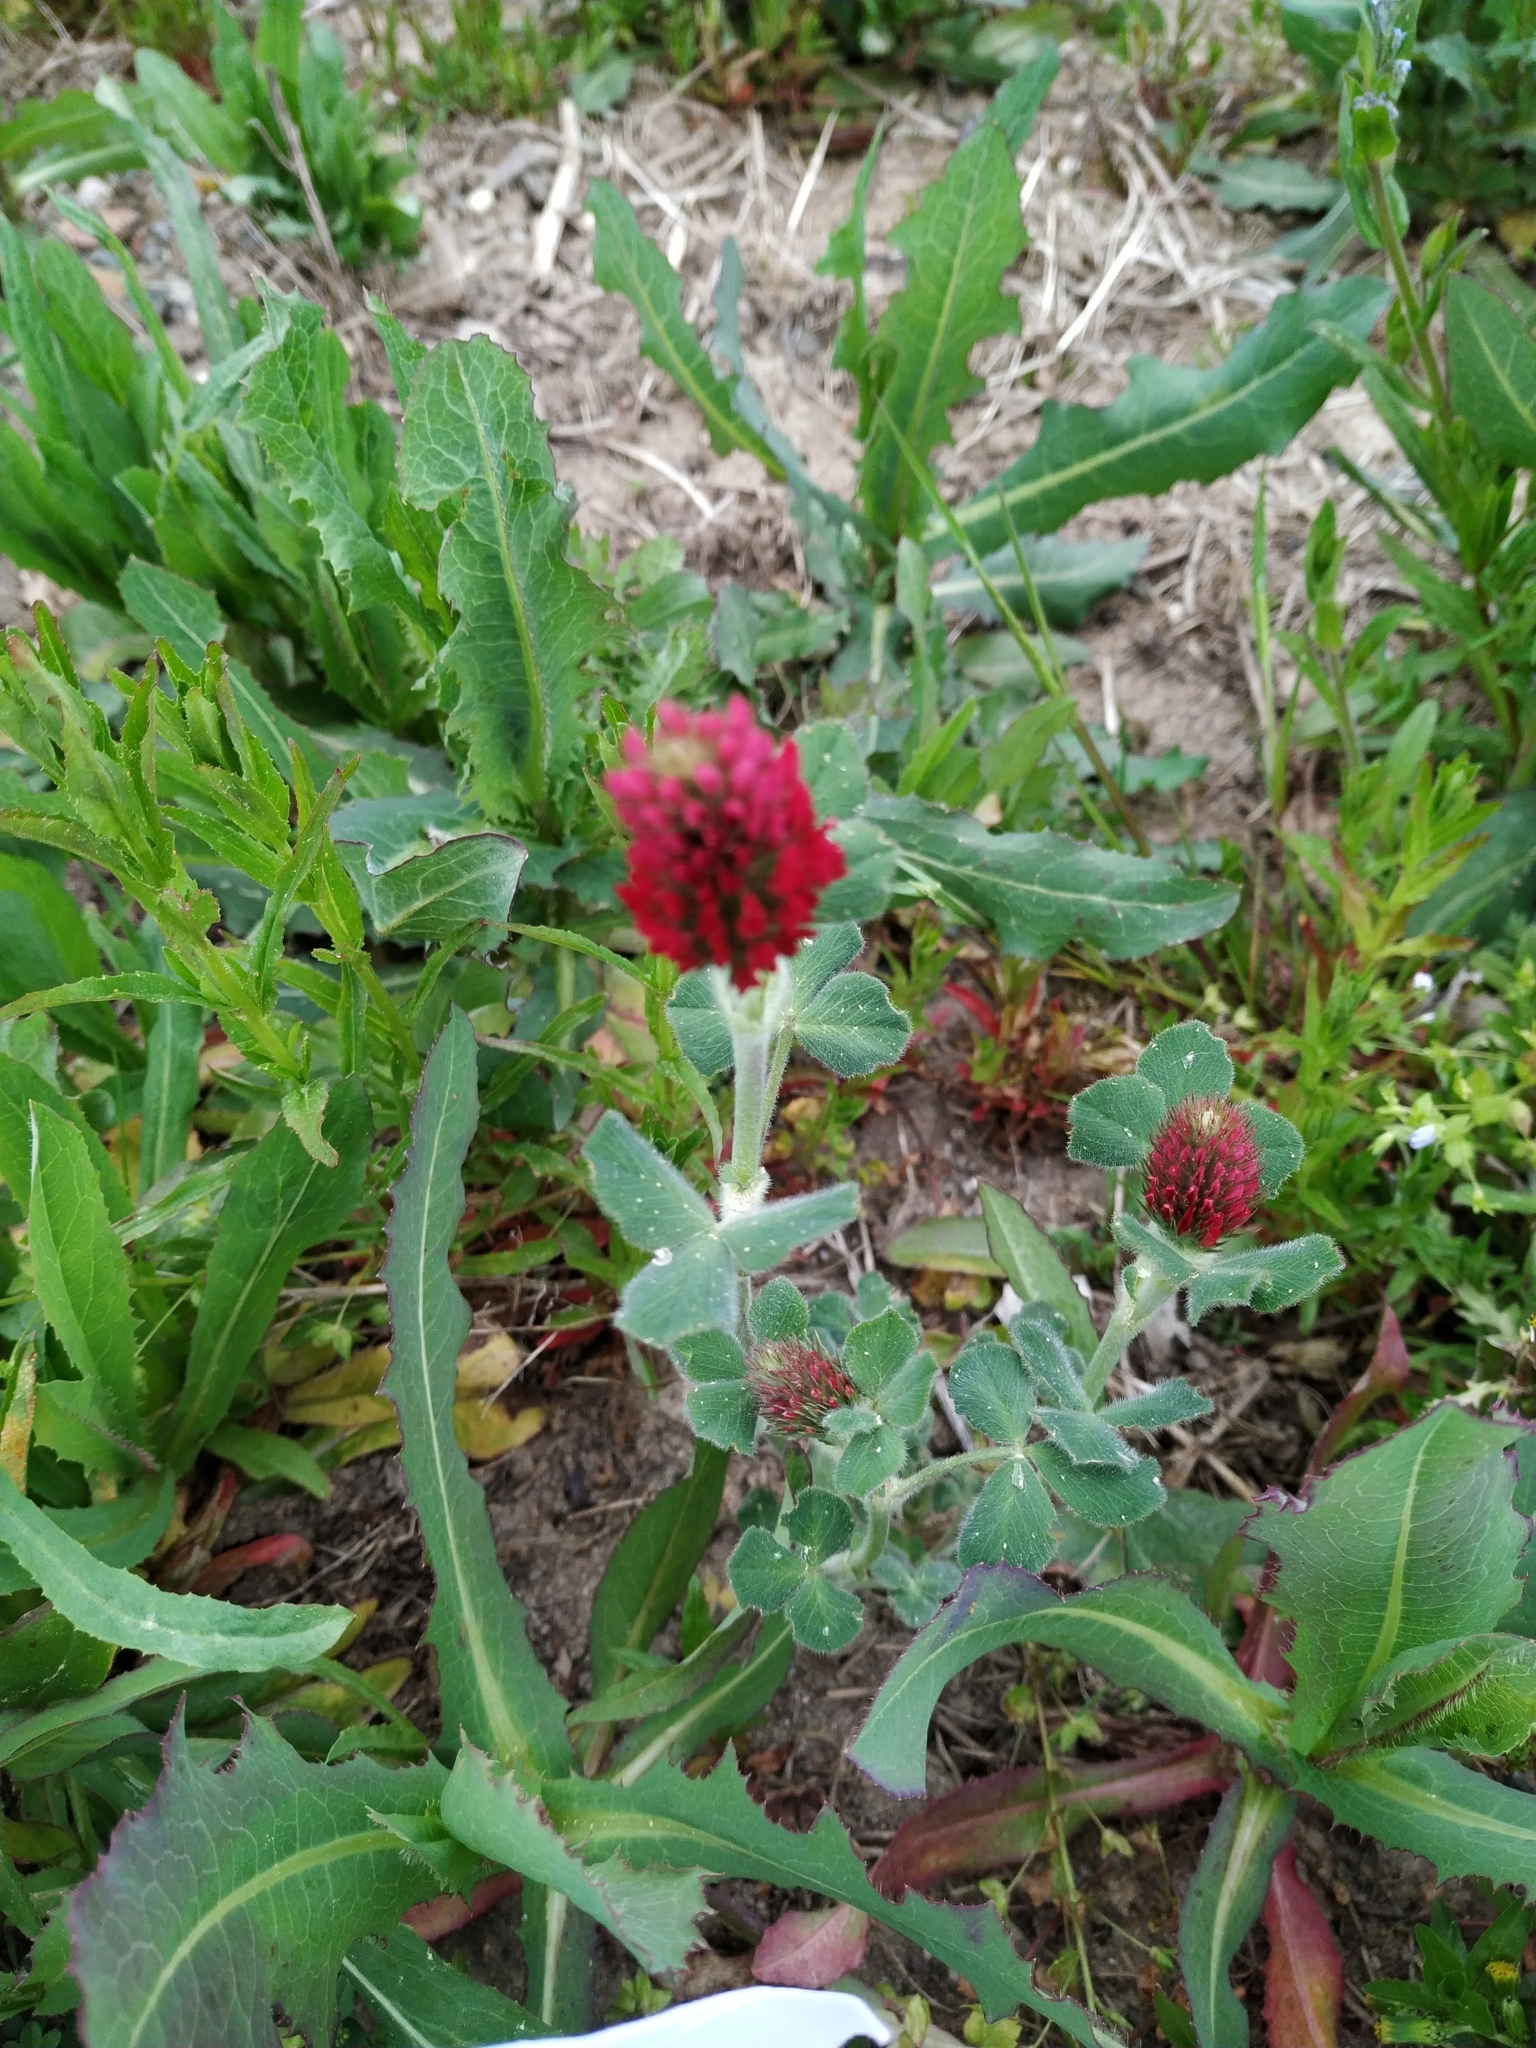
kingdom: Plantae
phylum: Tracheophyta
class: Magnoliopsida
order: Fabales
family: Fabaceae
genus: Trifolium
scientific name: Trifolium incarnatum
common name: Crimson clover
